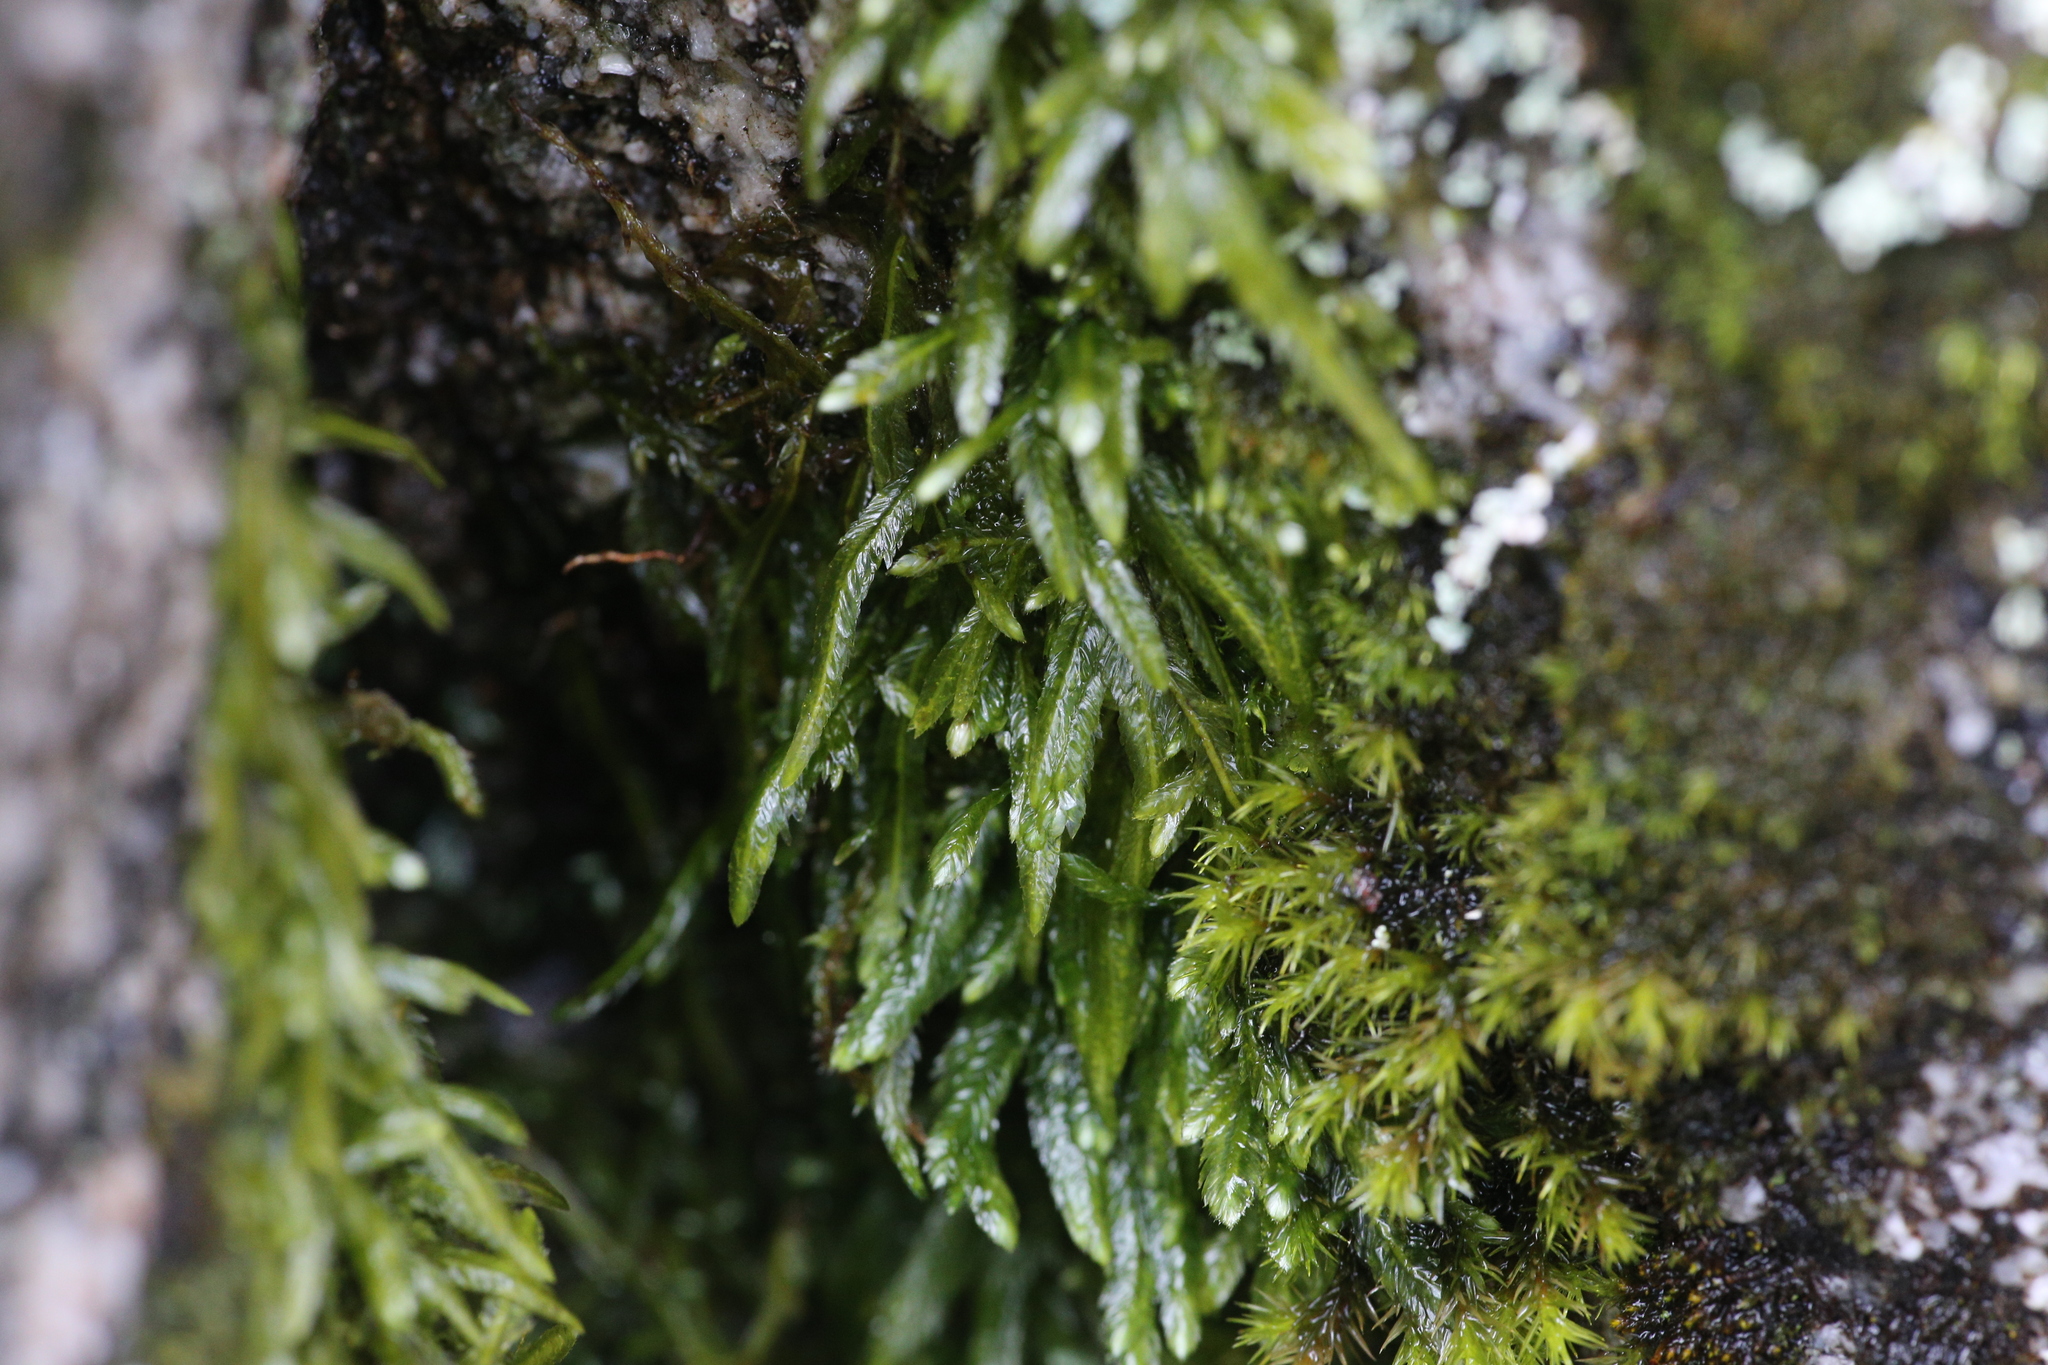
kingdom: Plantae
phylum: Bryophyta
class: Bryopsida
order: Hypnales
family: Catagoniaceae
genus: Catagonium
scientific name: Catagonium nitens
